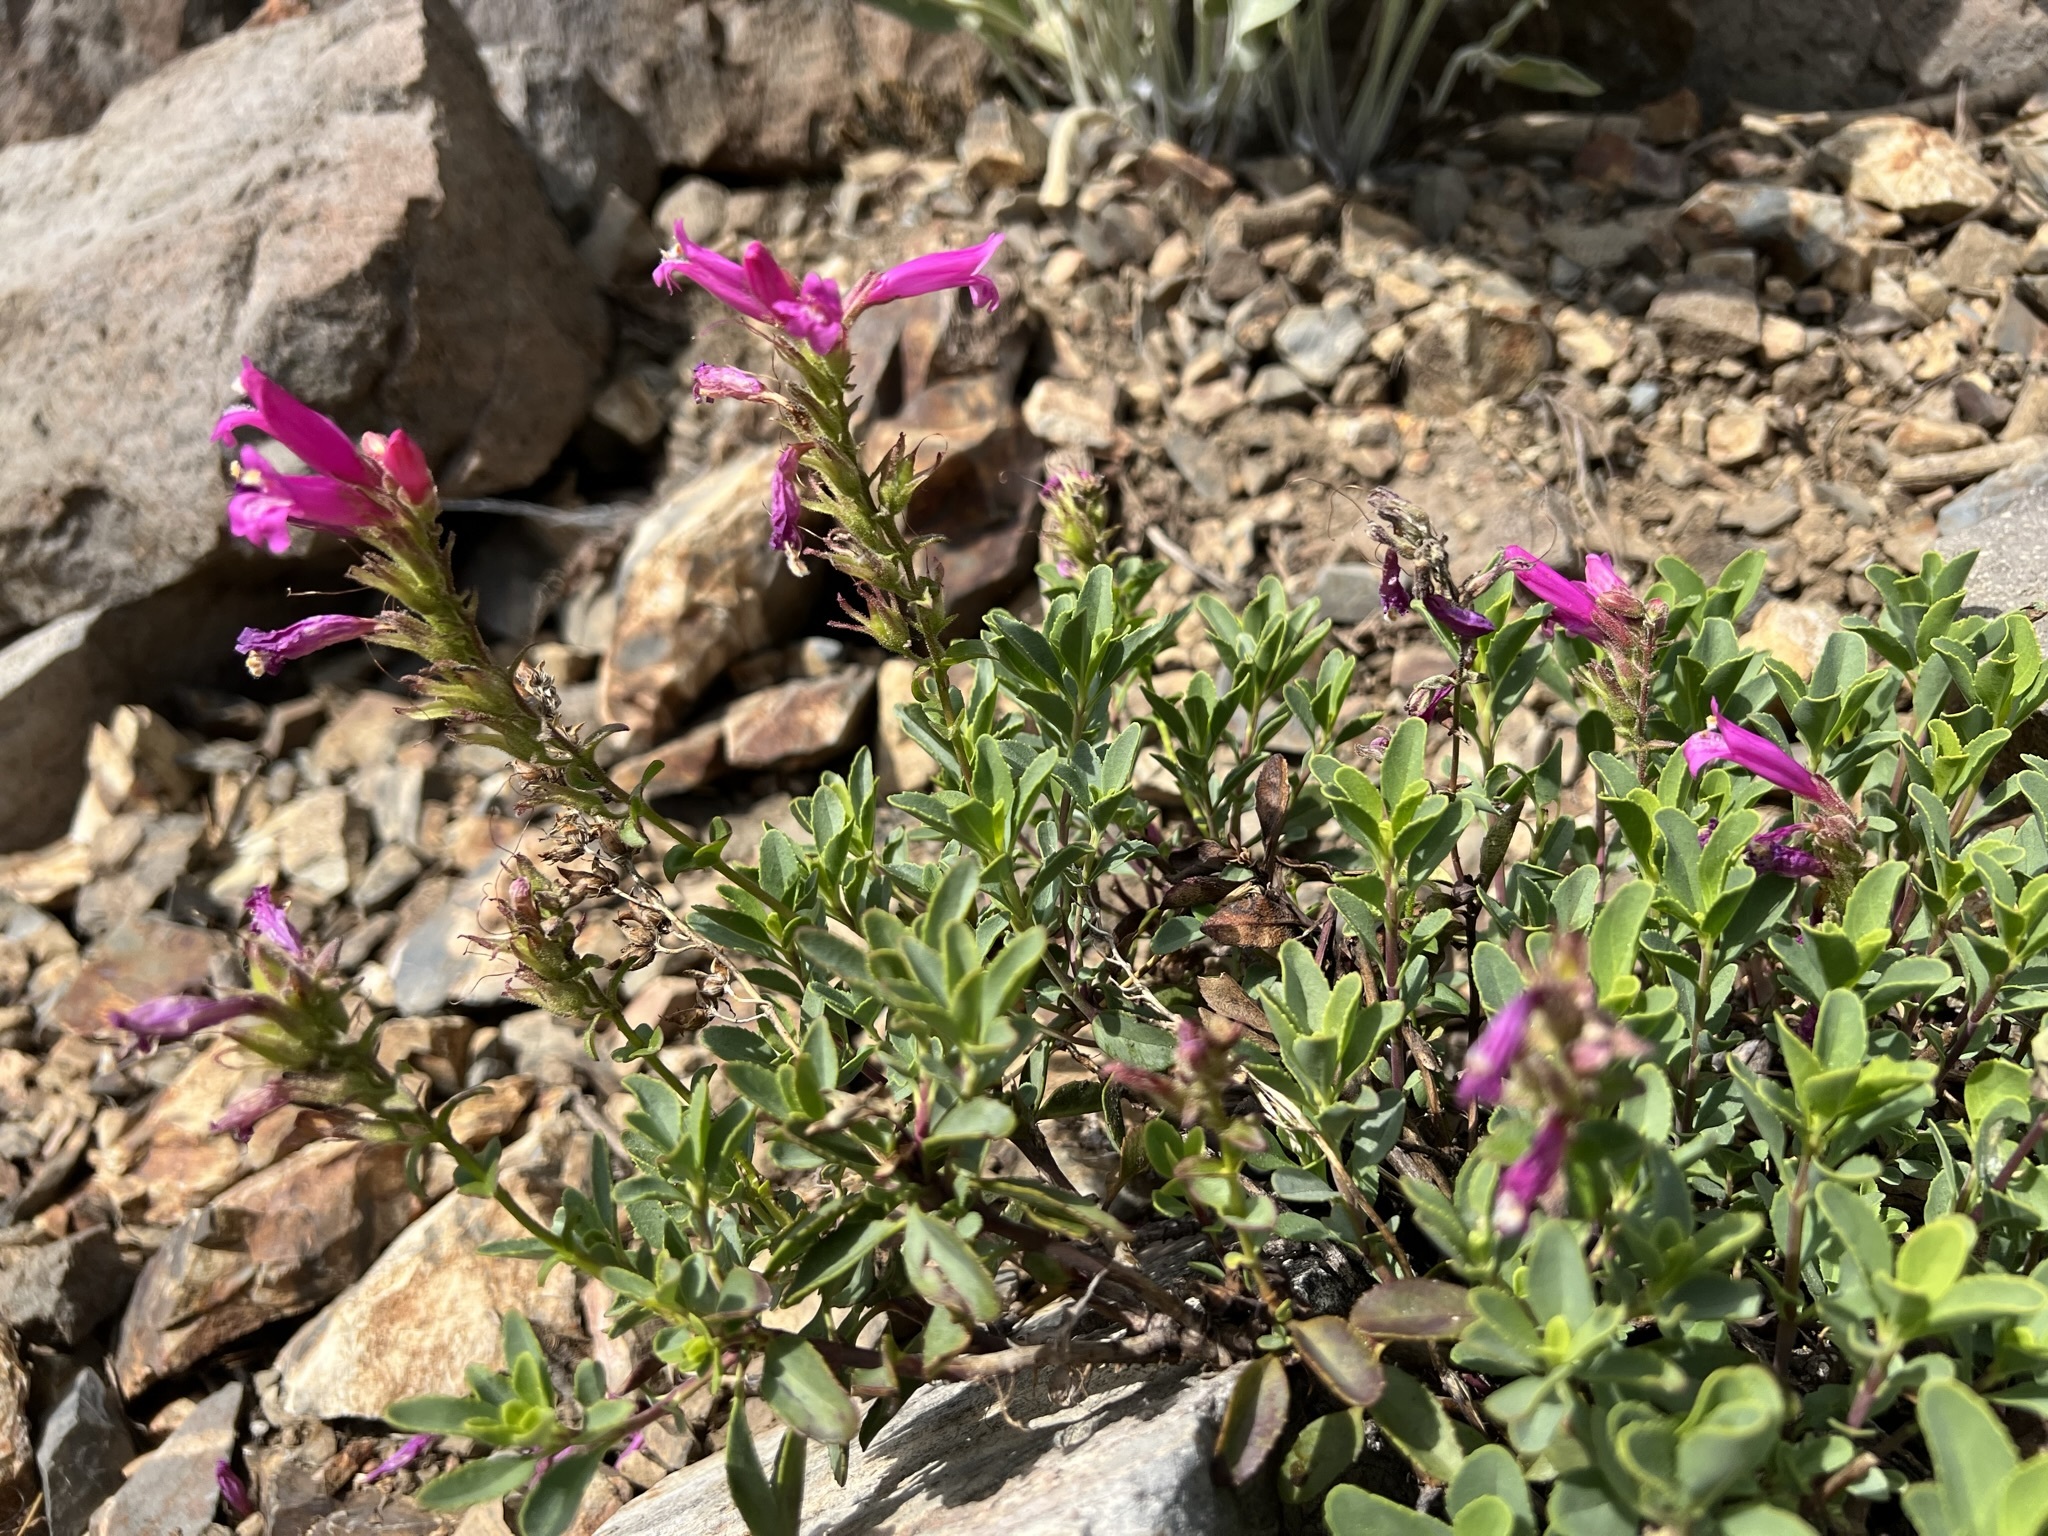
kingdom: Plantae
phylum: Tracheophyta
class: Magnoliopsida
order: Lamiales
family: Plantaginaceae
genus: Penstemon
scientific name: Penstemon newberryi
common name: Mountain-pride
